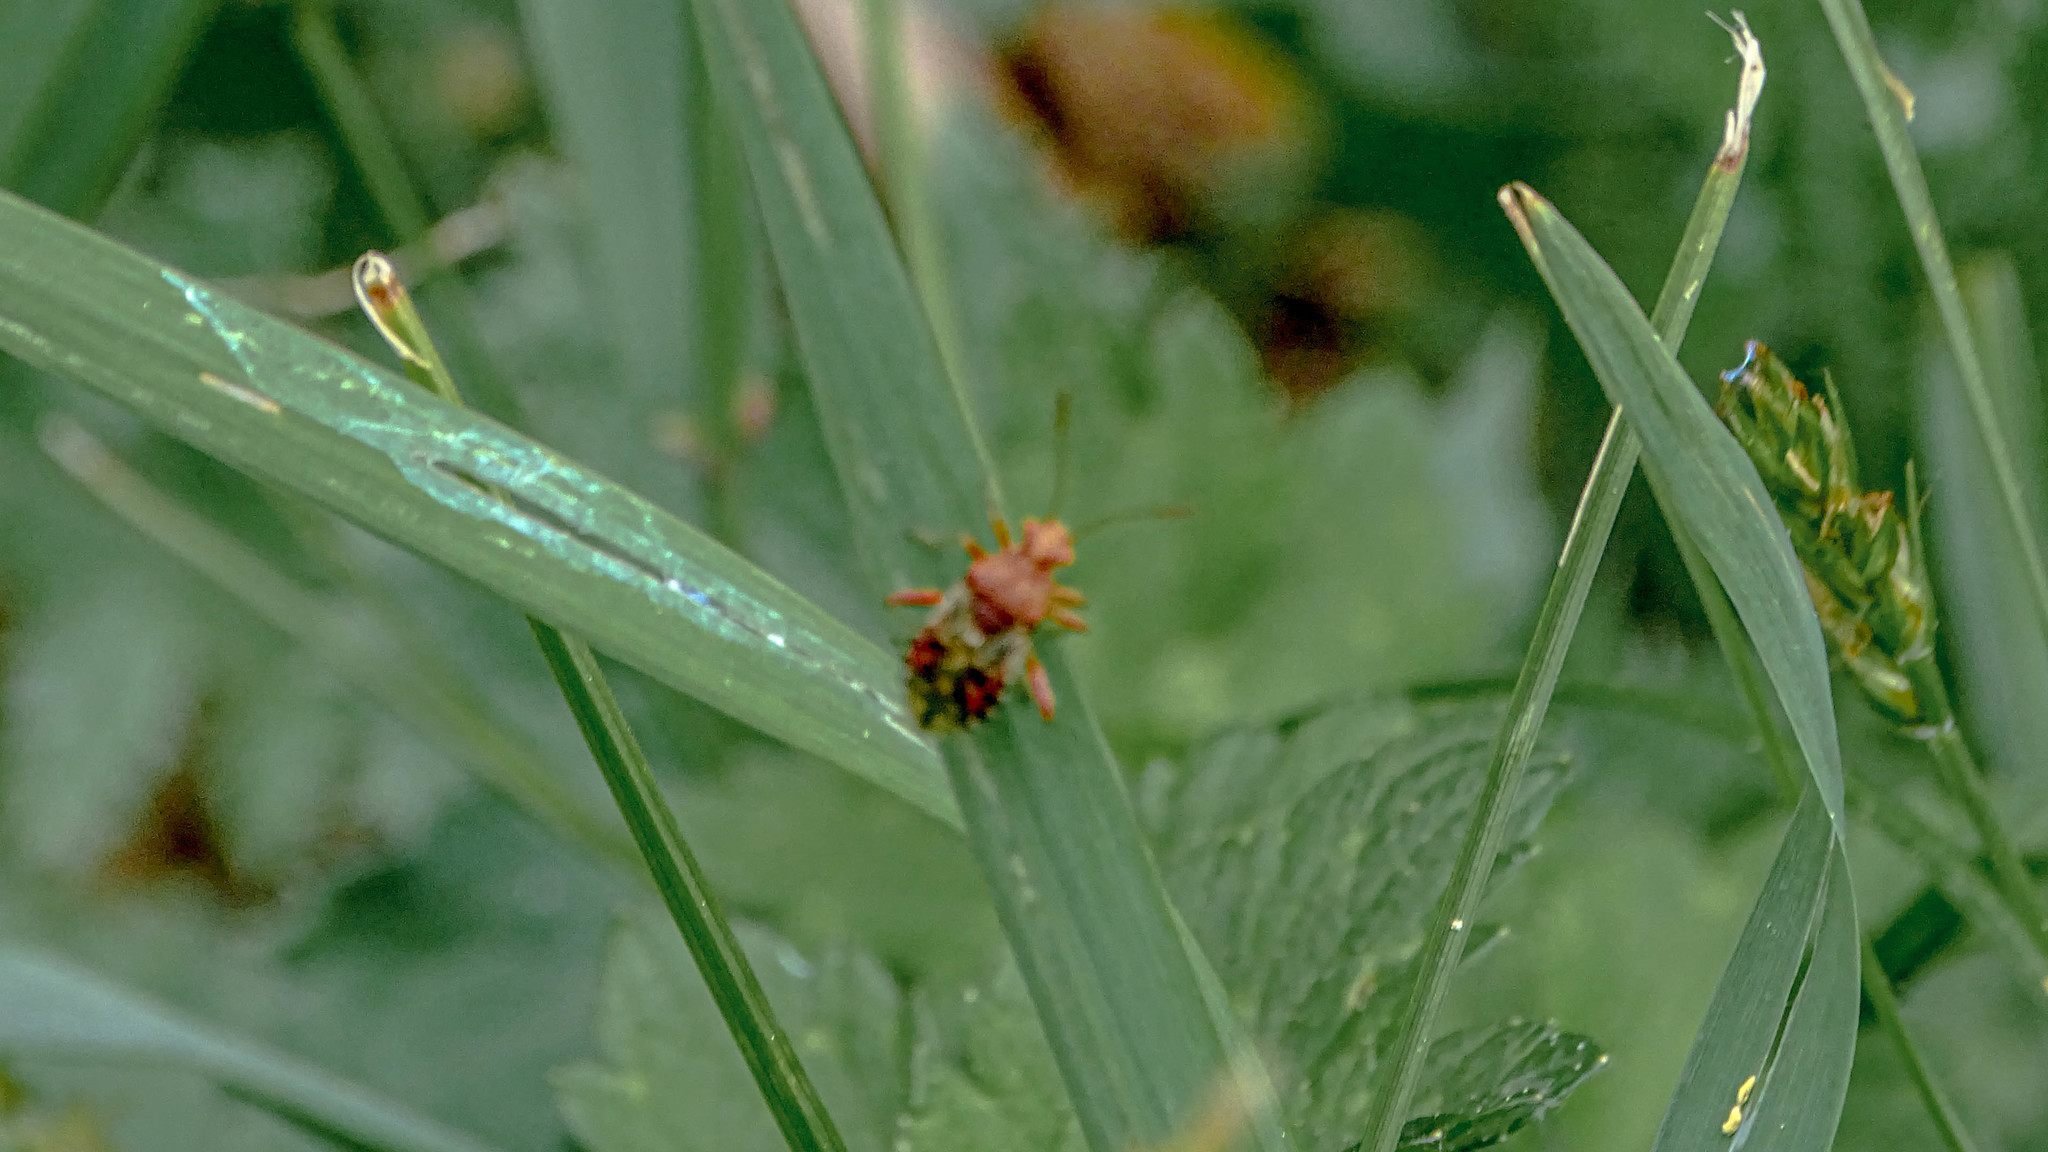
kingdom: Animalia
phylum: Arthropoda
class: Insecta
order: Hemiptera
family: Rhopalidae
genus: Rhopalus
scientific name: Rhopalus subrufus
